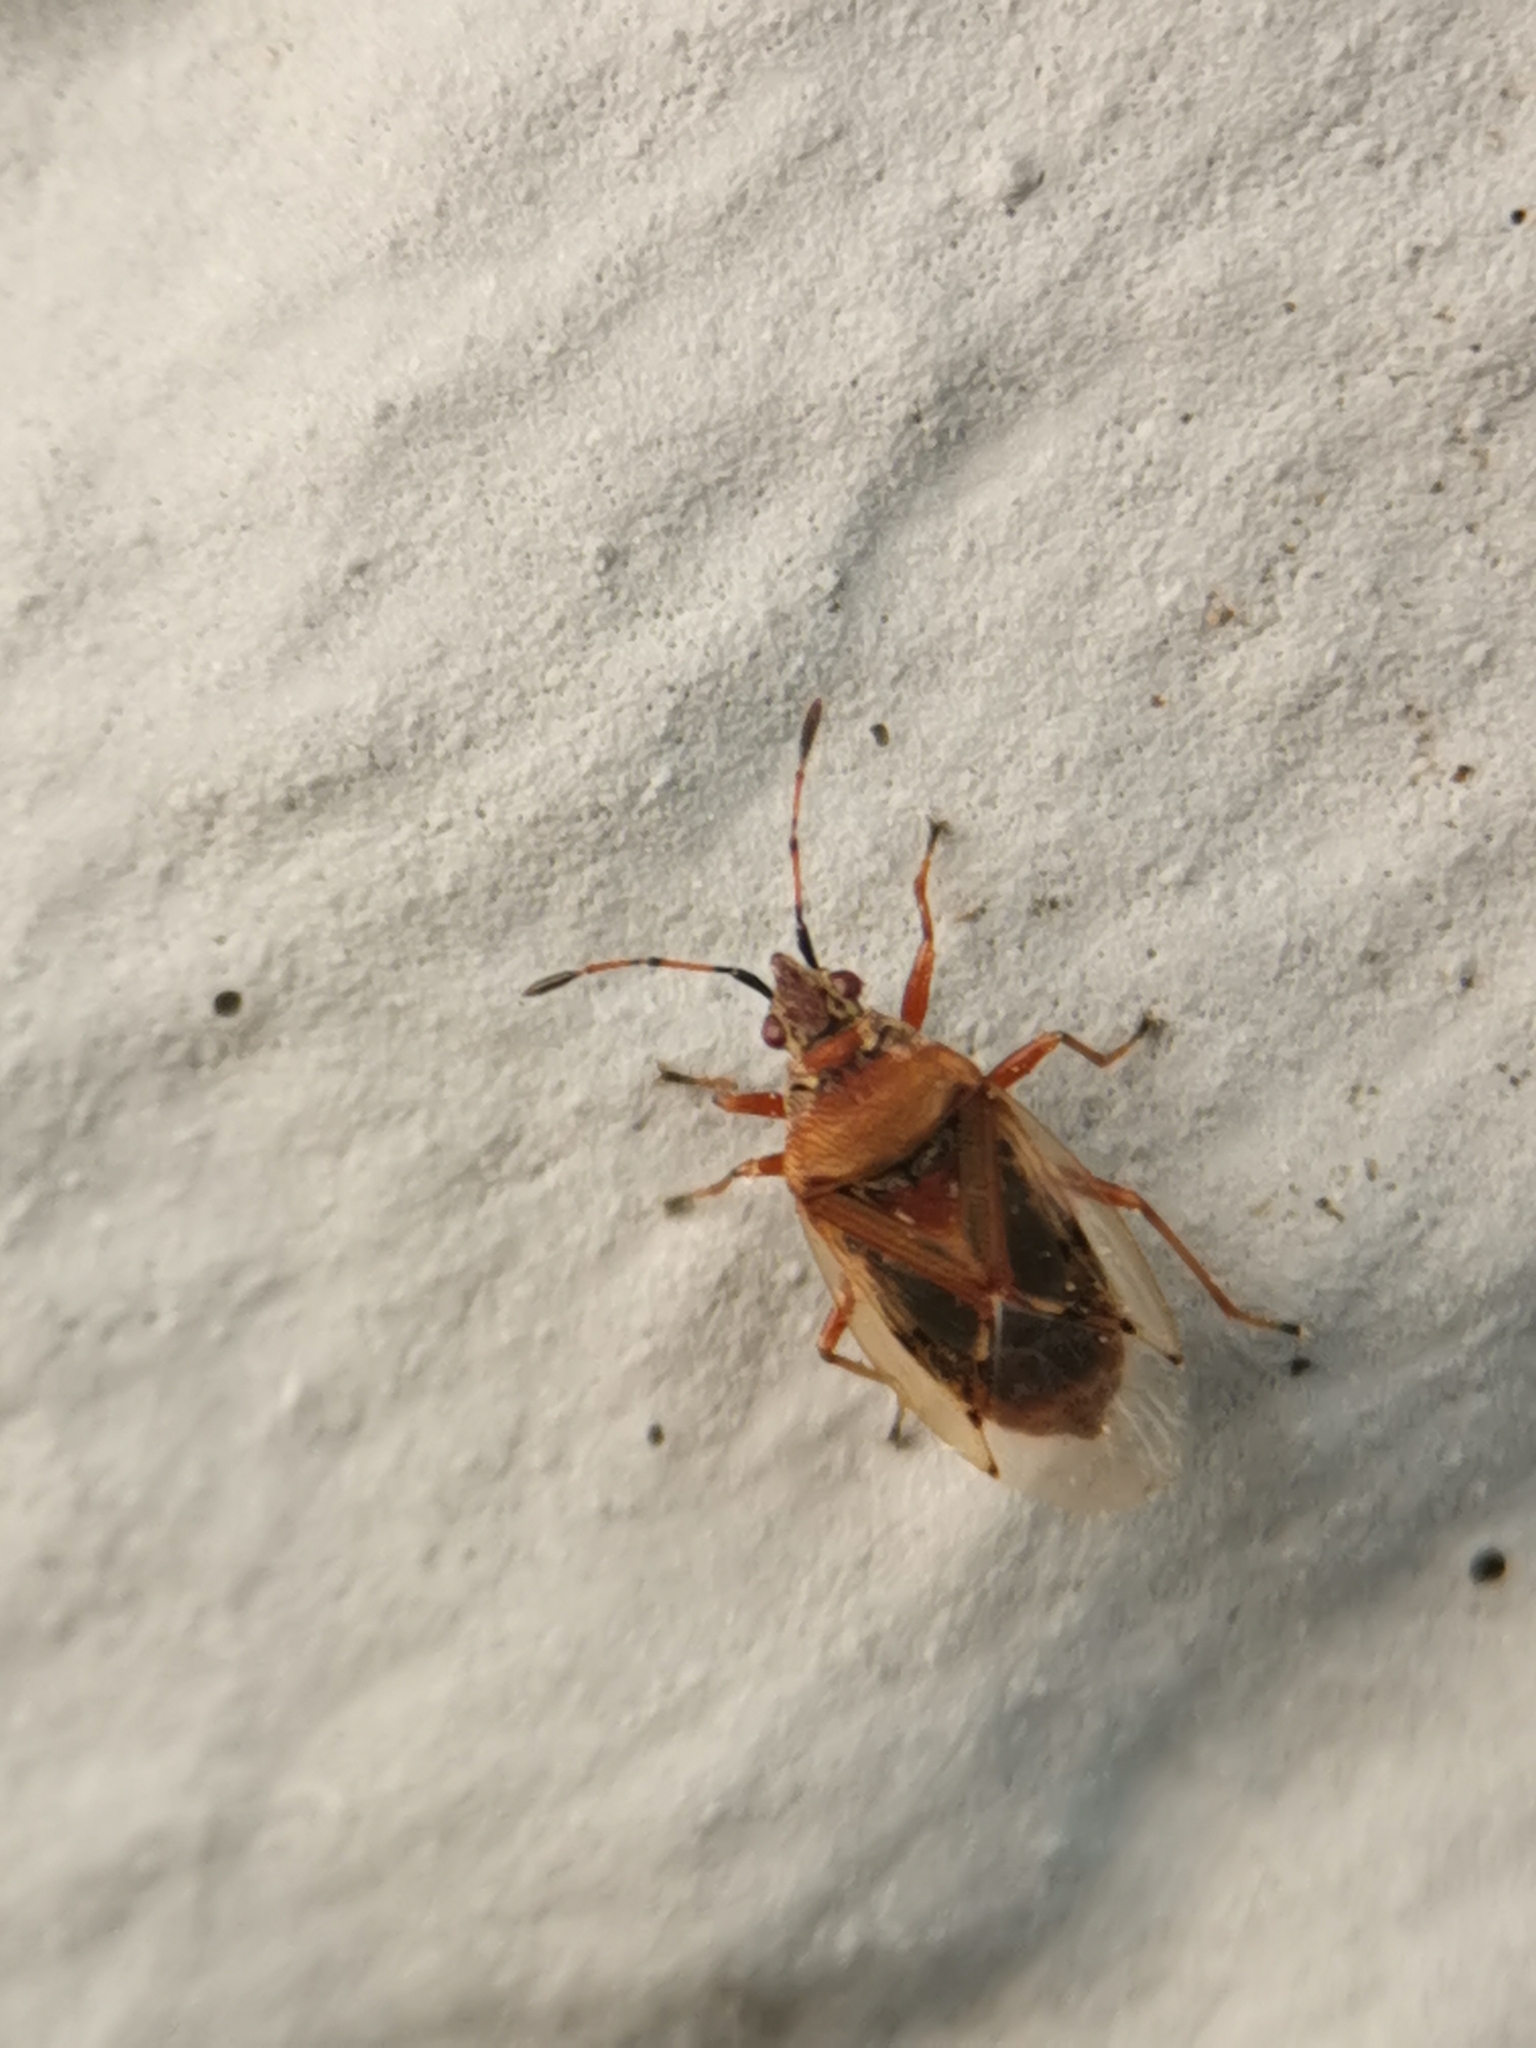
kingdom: Animalia
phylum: Arthropoda
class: Insecta
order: Hemiptera
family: Lygaeidae
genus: Kleidocerys
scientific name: Kleidocerys resedae
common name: Birch catkin bug
